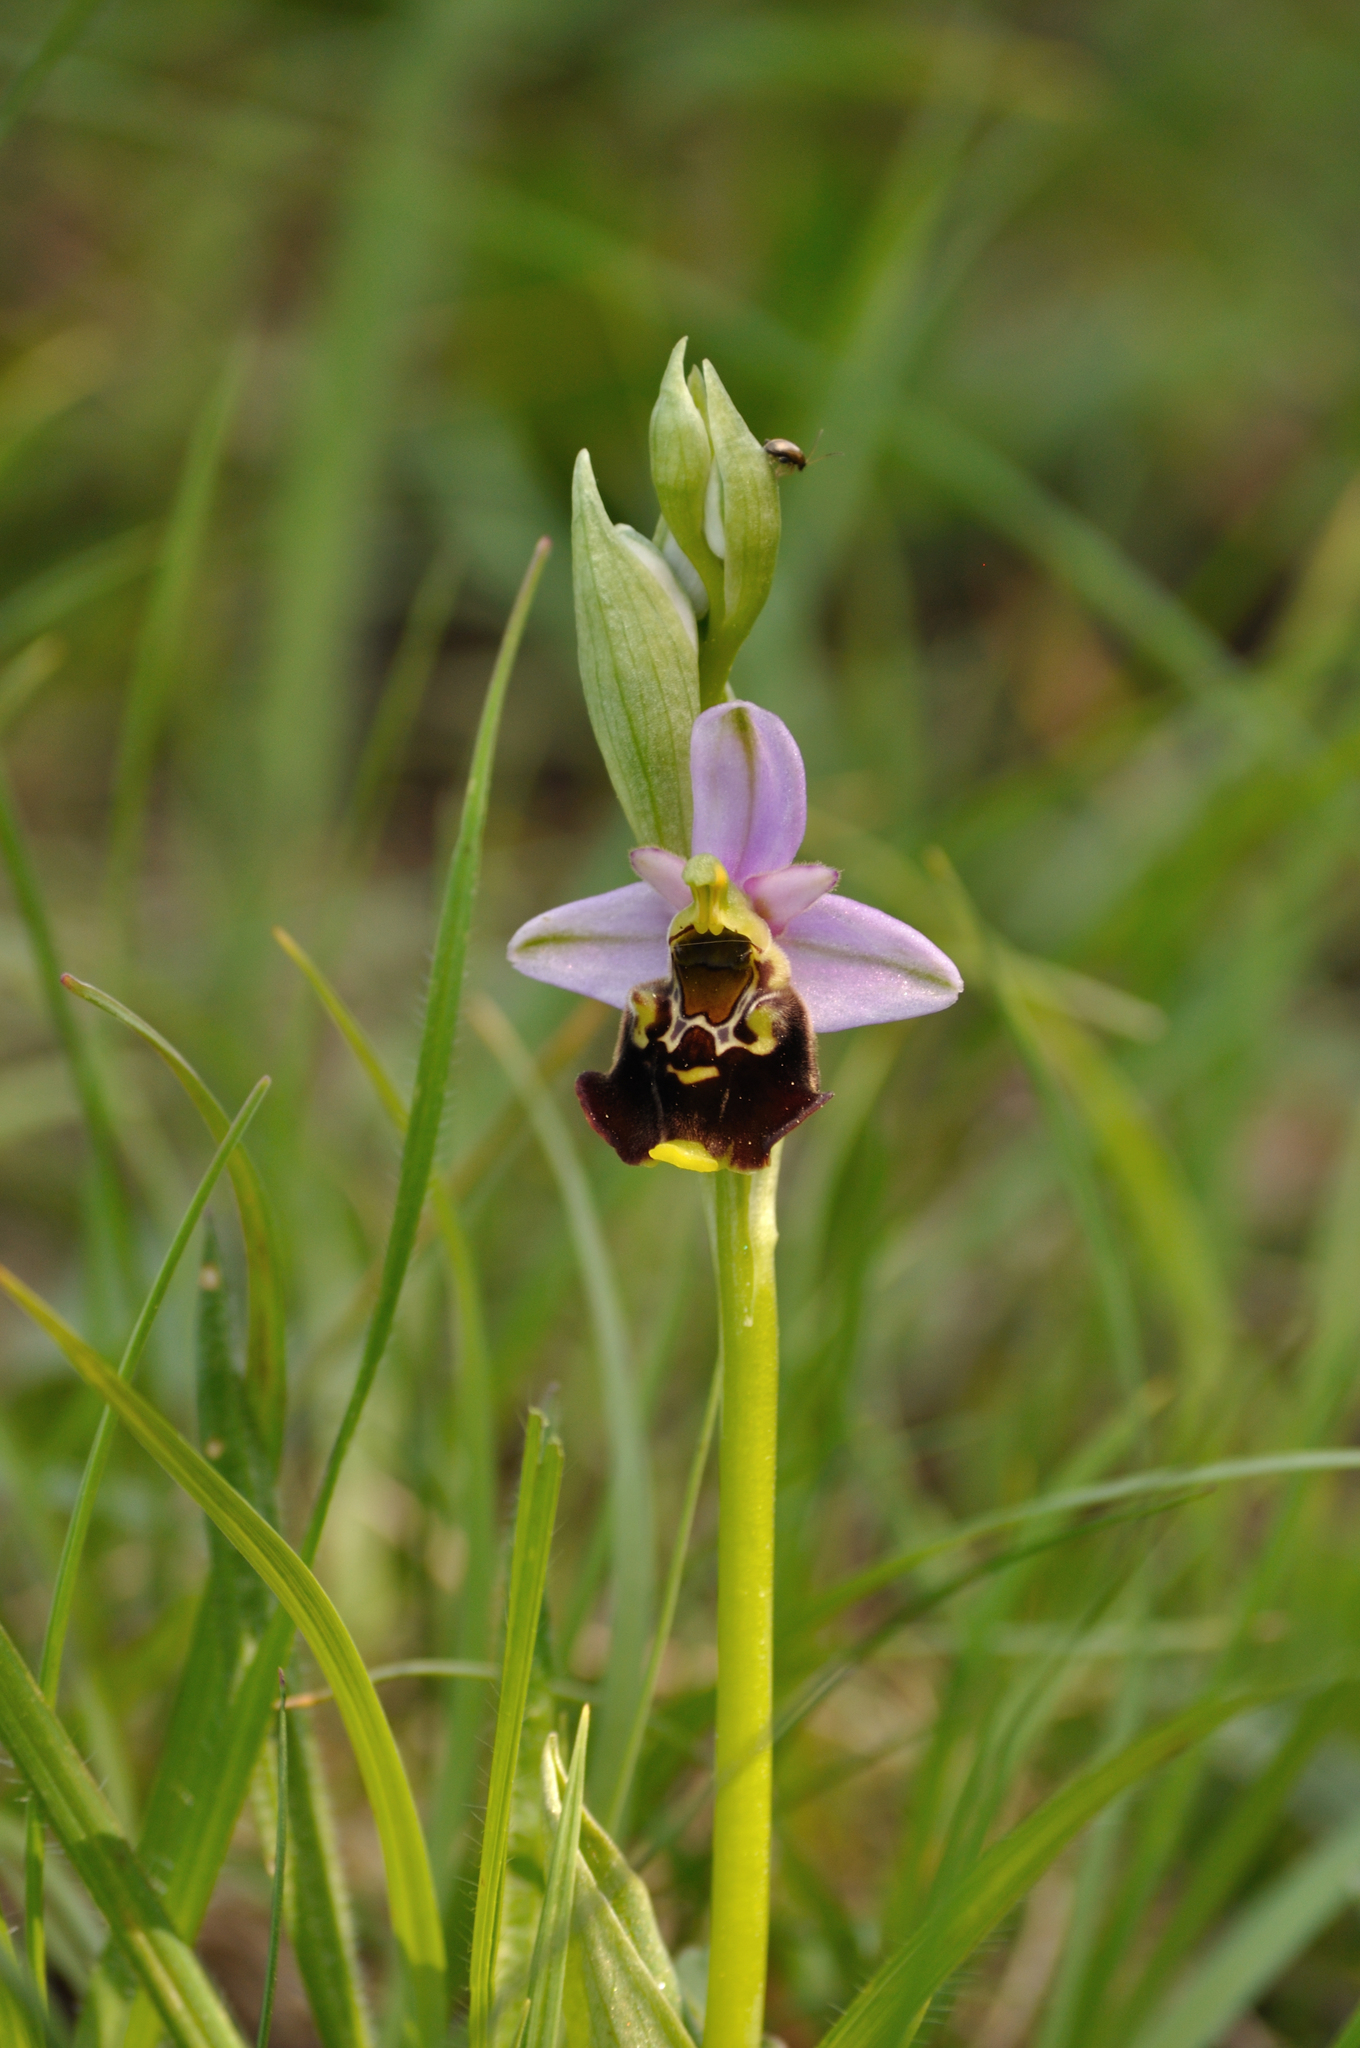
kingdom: Plantae
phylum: Tracheophyta
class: Liliopsida
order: Asparagales
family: Orchidaceae
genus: Ophrys
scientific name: Ophrys holosericea
